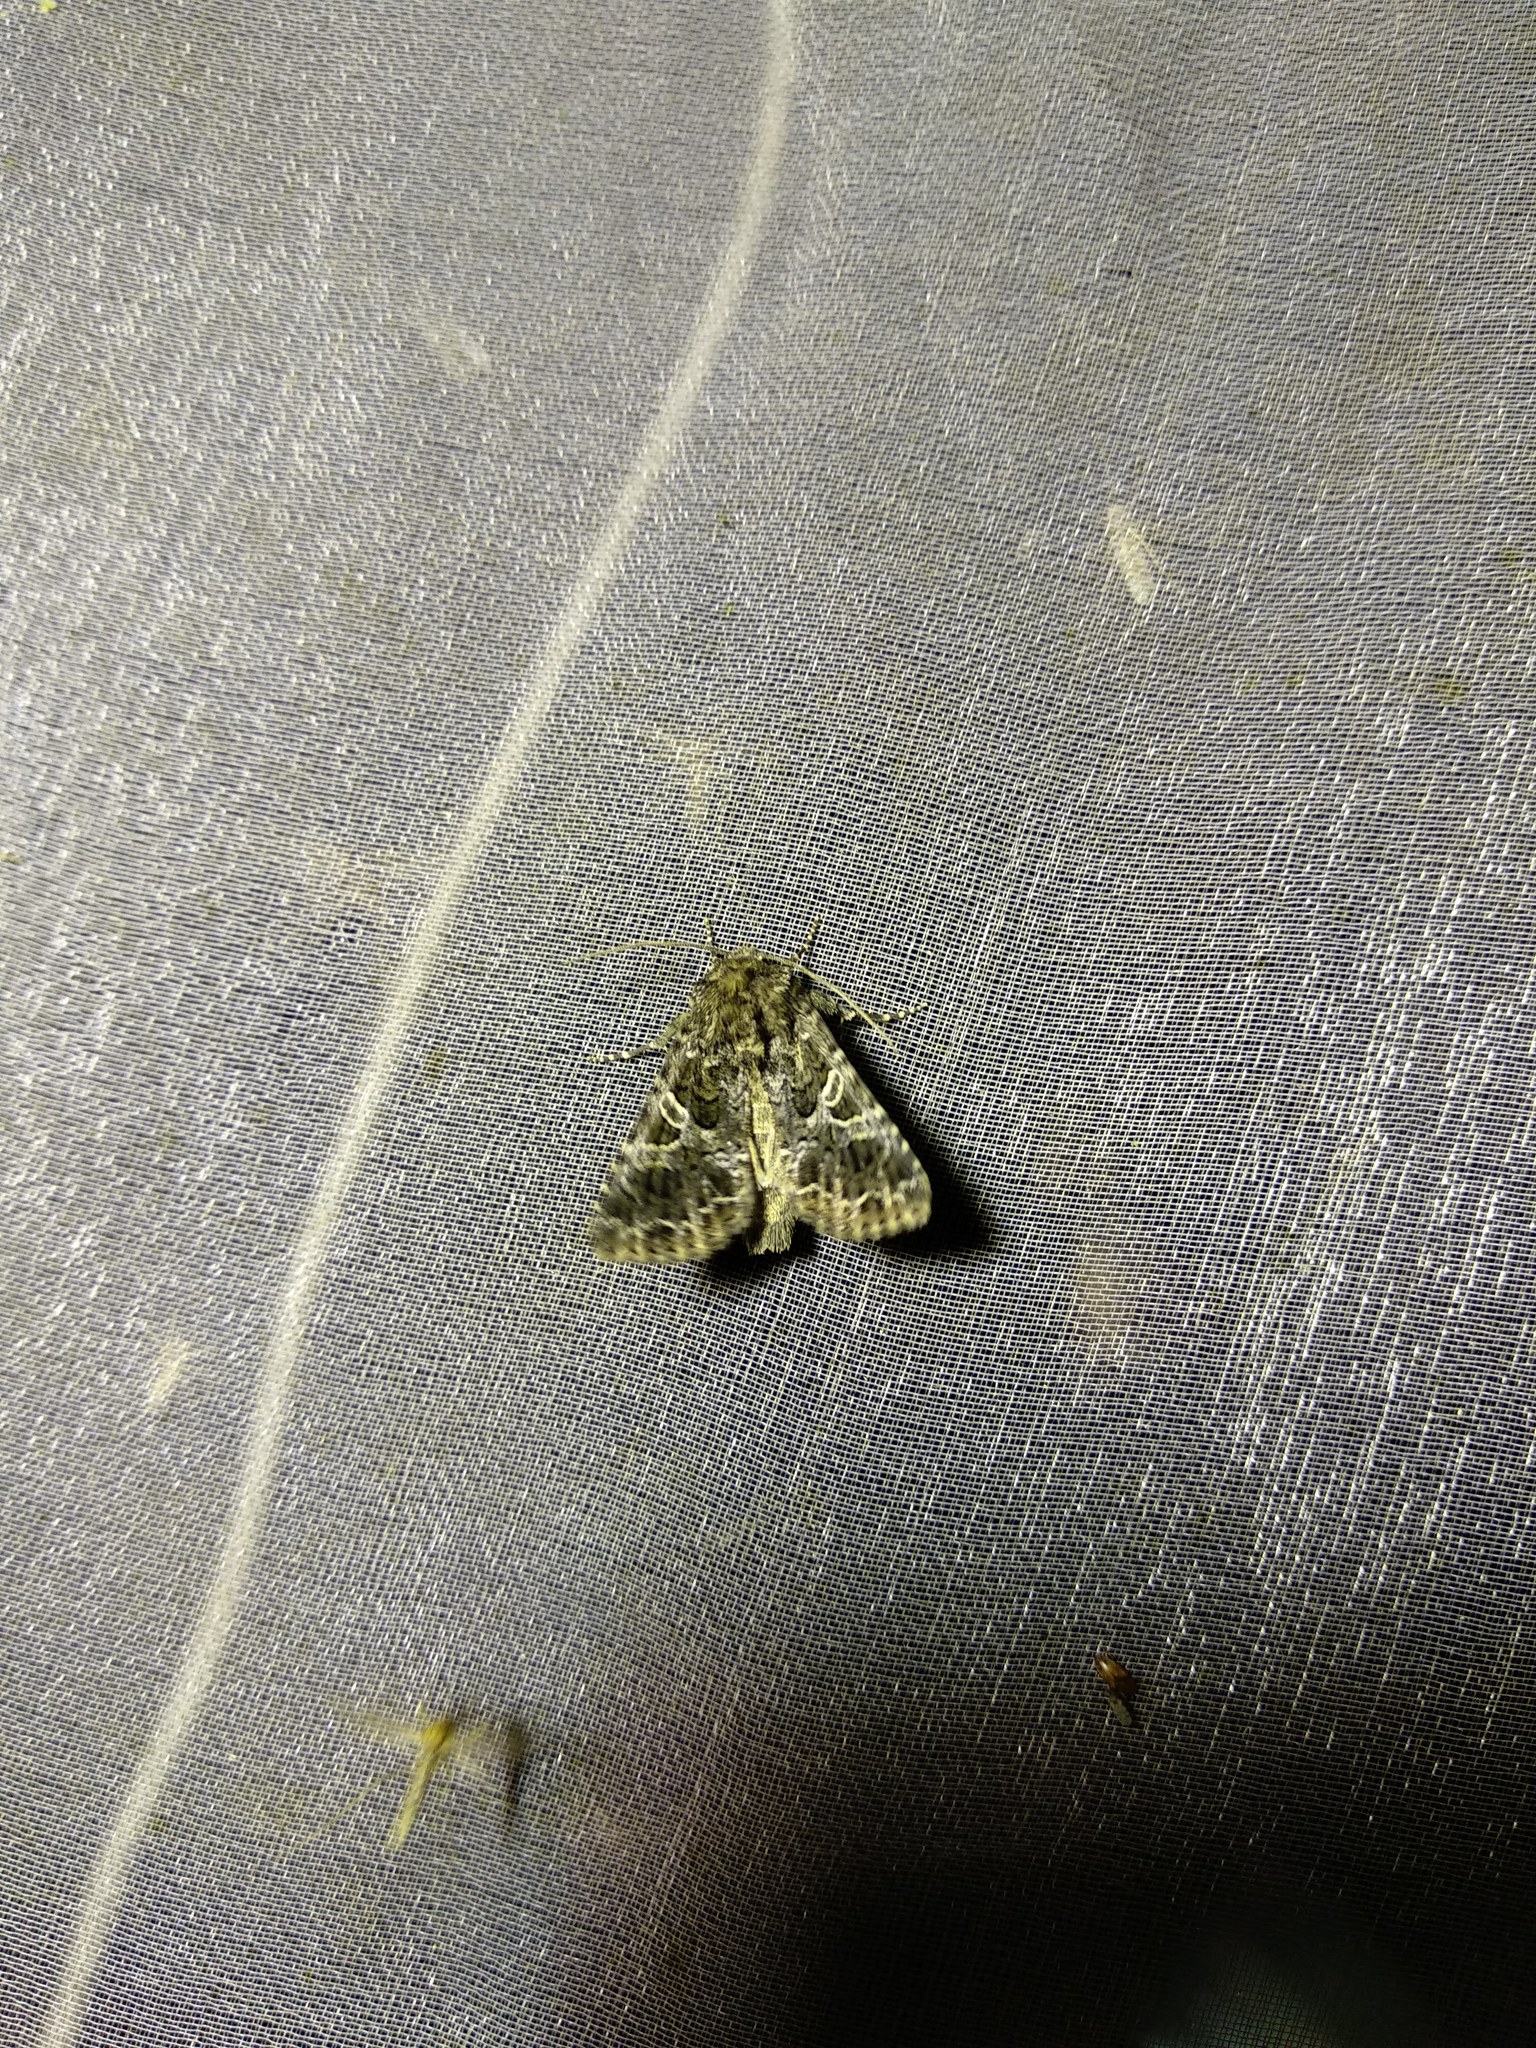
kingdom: Animalia
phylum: Arthropoda
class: Insecta
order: Lepidoptera
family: Noctuidae
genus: Hadena
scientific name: Hadena capsincola
